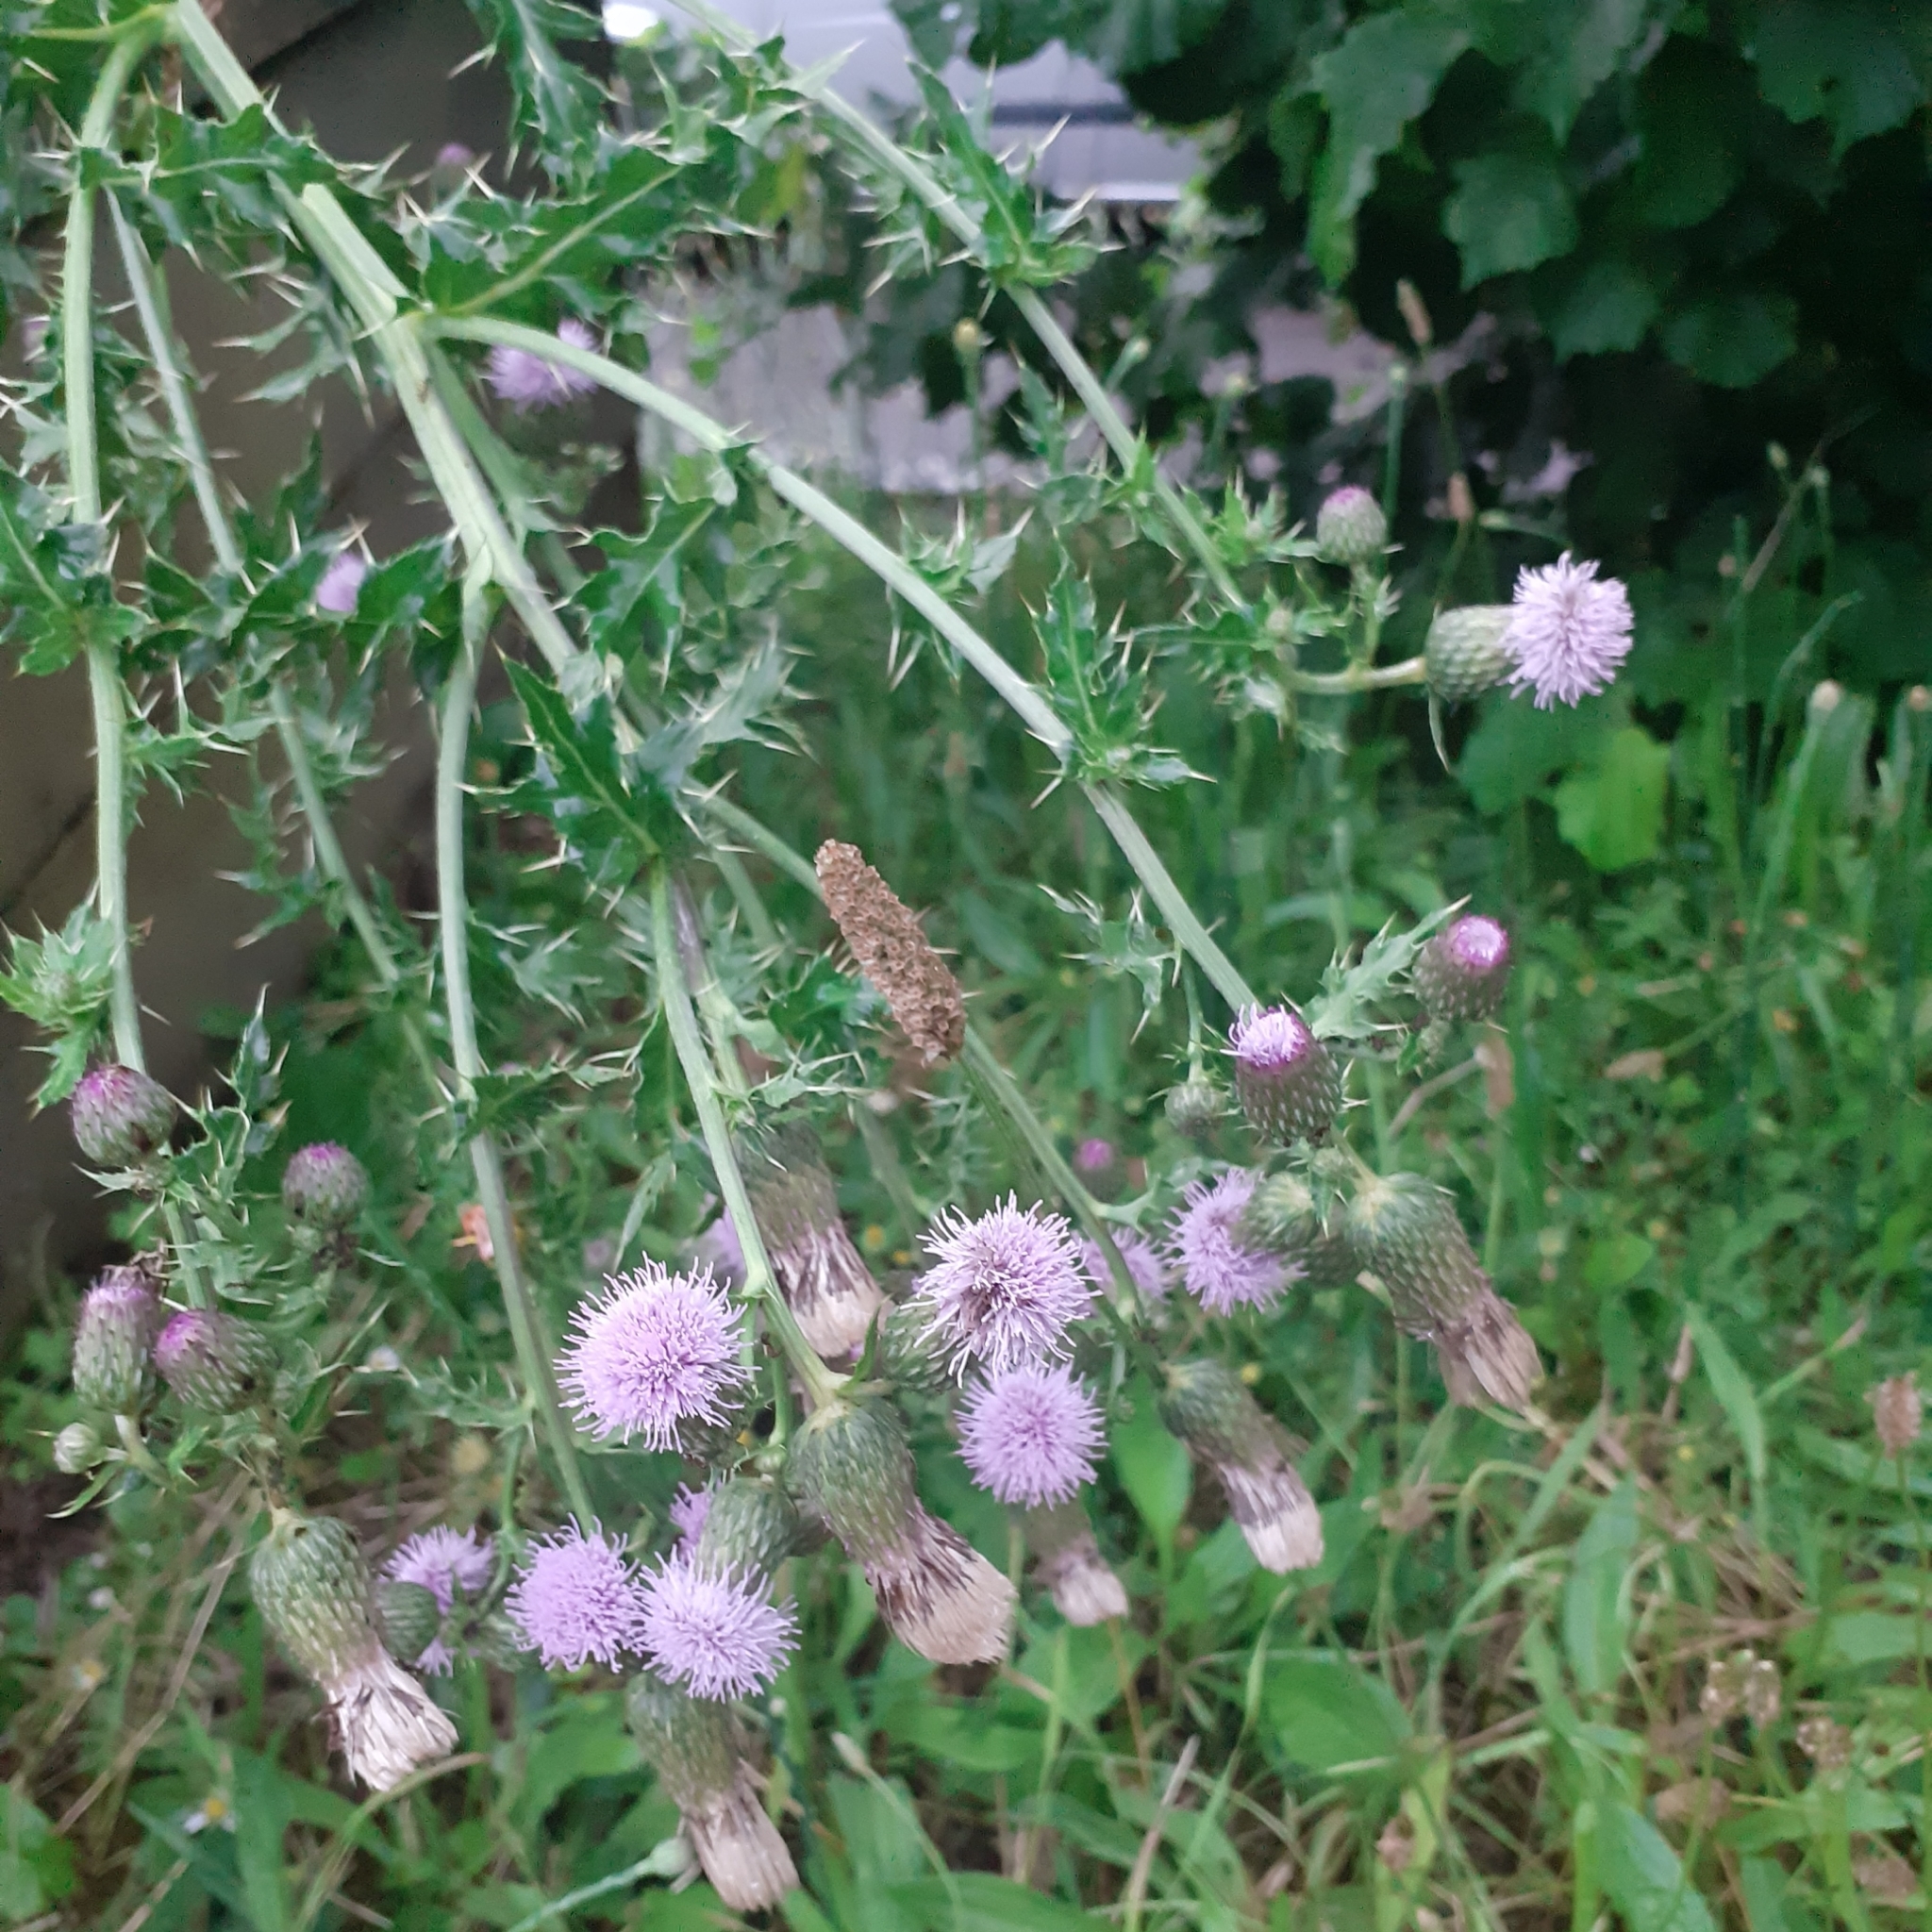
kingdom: Plantae
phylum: Tracheophyta
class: Magnoliopsida
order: Asterales
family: Asteraceae
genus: Cirsium
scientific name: Cirsium arvense
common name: Creeping thistle
